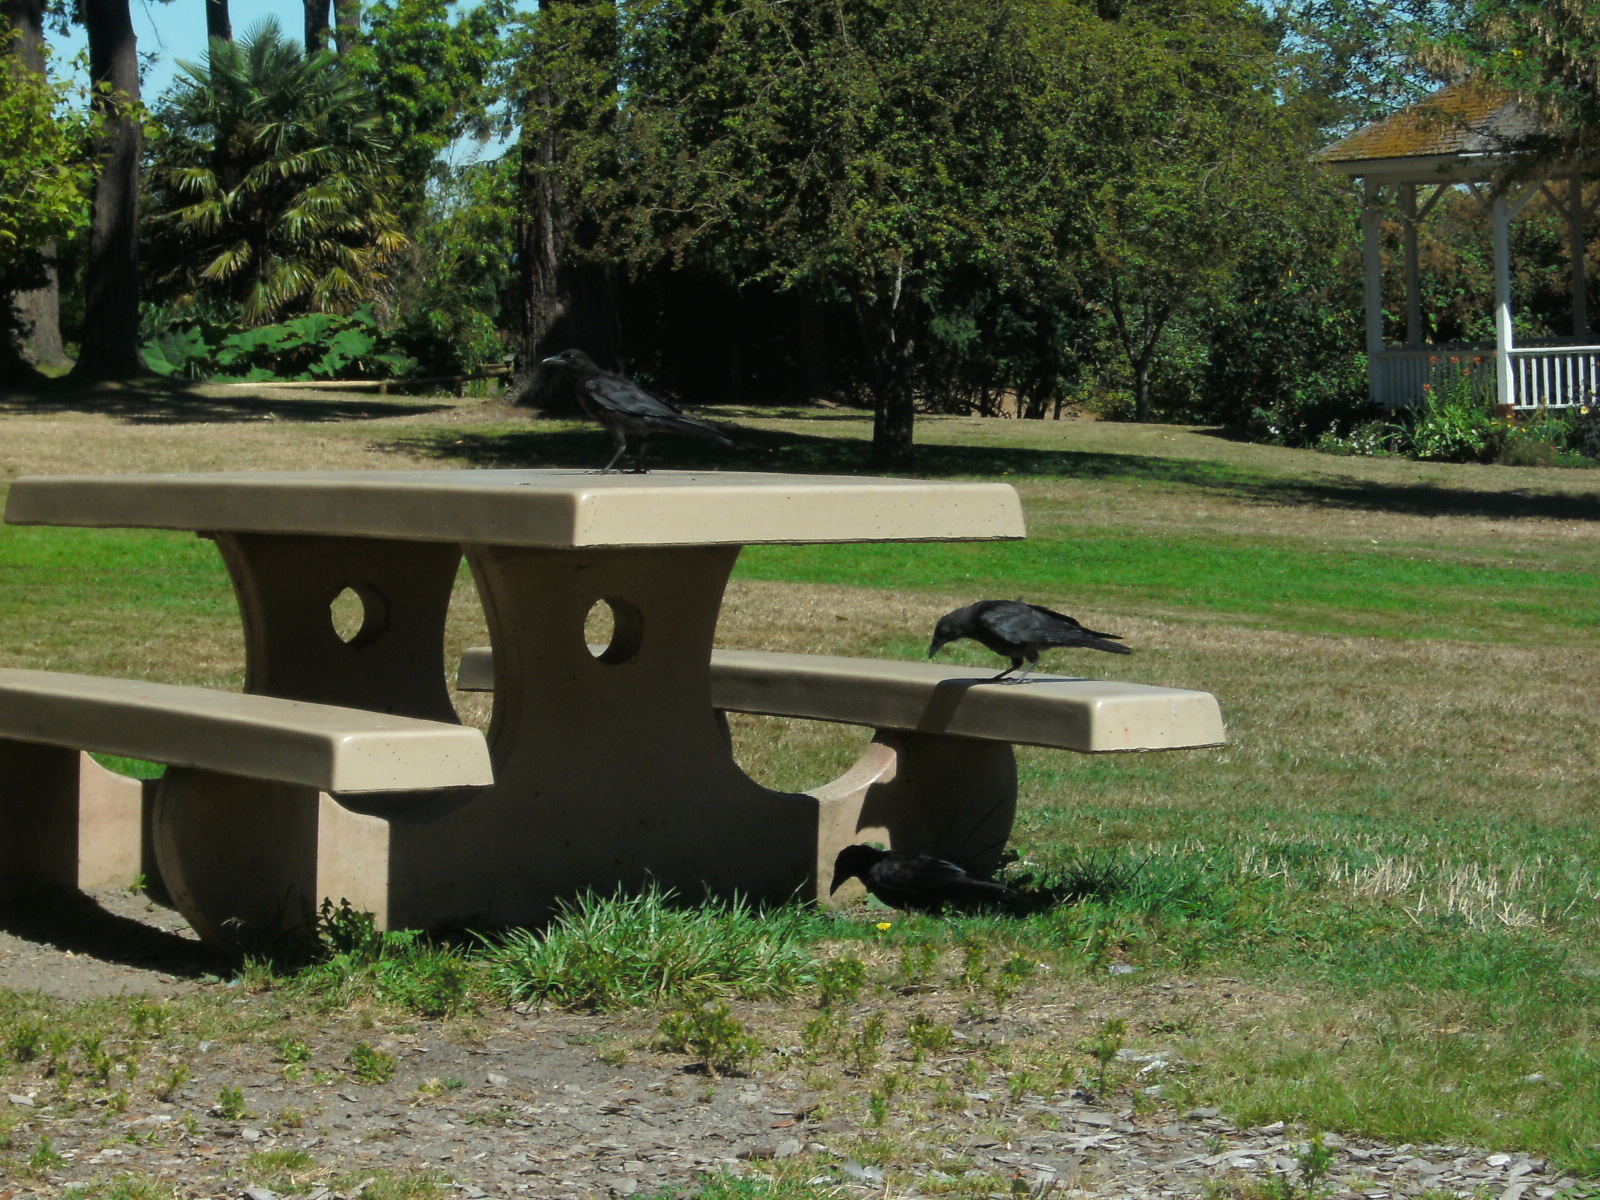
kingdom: Animalia
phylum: Chordata
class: Aves
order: Passeriformes
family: Corvidae
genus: Corvus
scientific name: Corvus brachyrhynchos
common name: American crow
